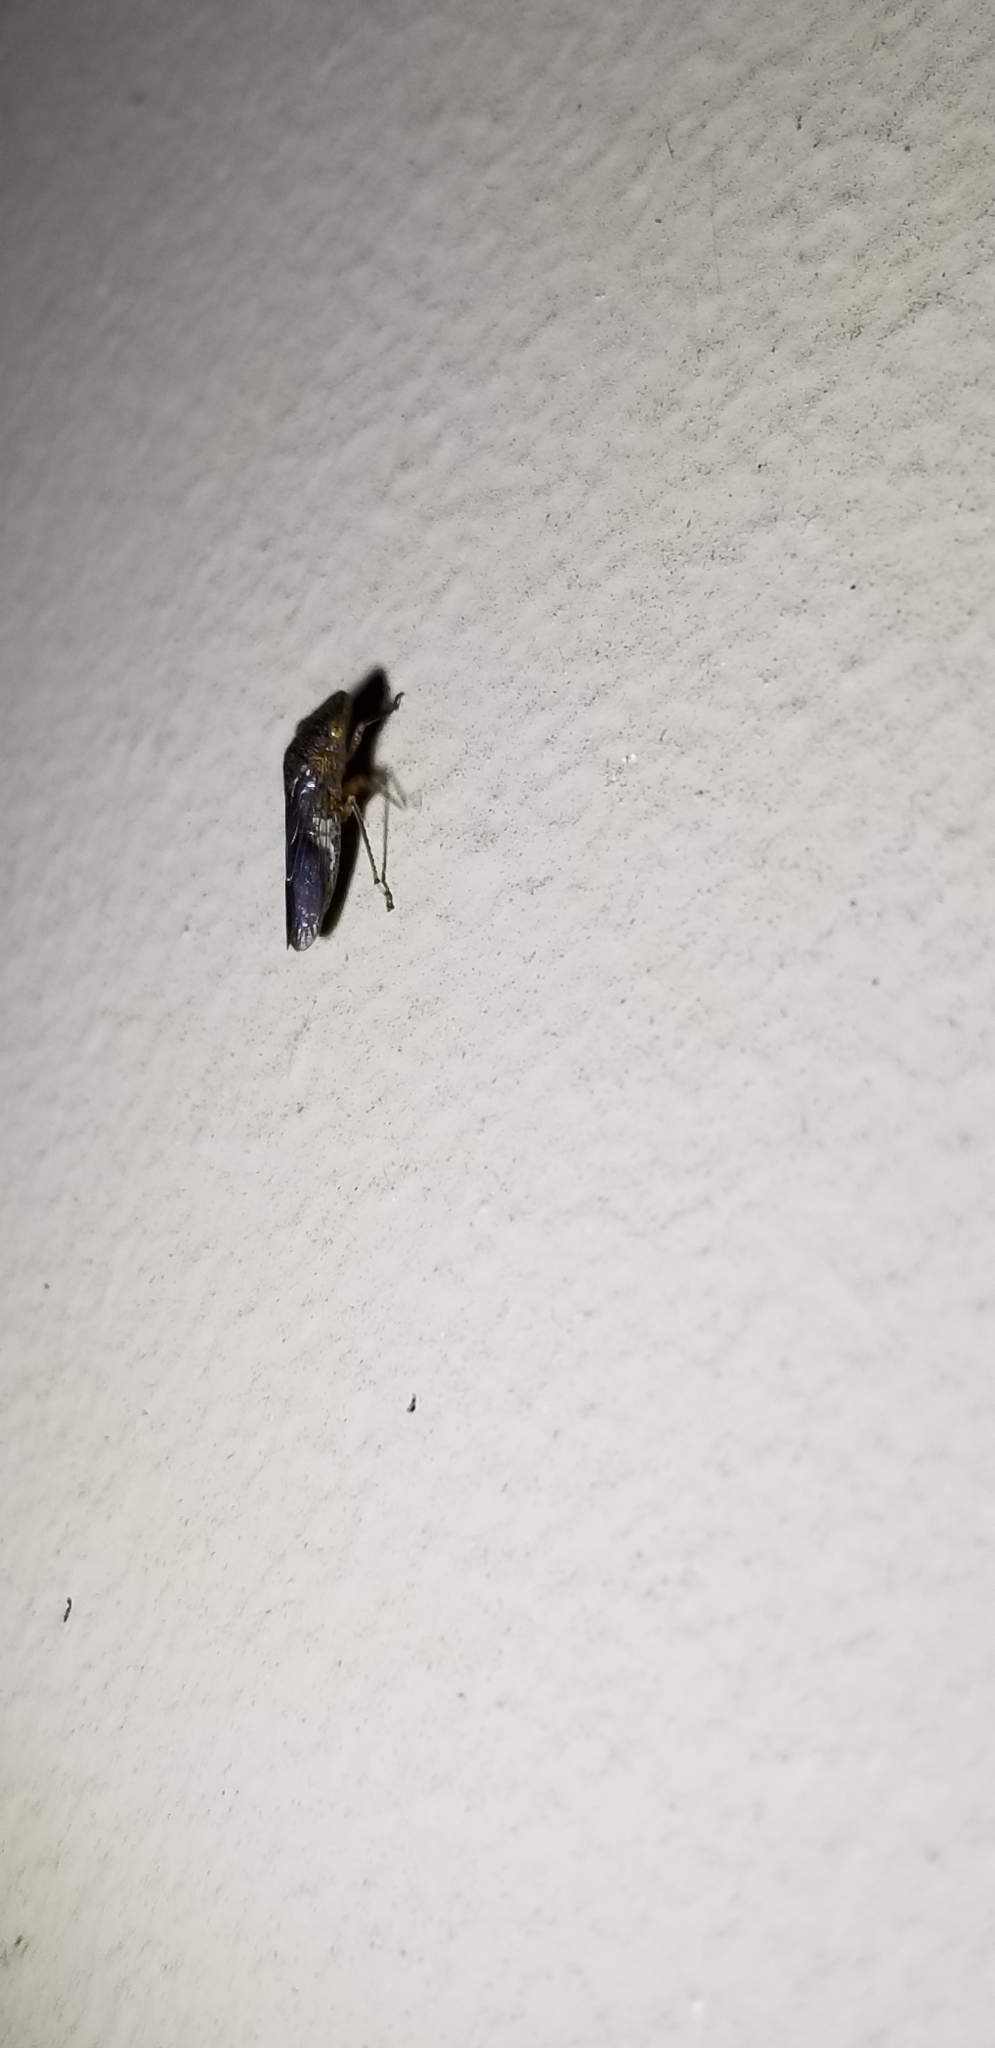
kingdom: Animalia
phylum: Arthropoda
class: Insecta
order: Hemiptera
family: Cicadellidae
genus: Homalodisca
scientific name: Homalodisca vitripennis
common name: Glassy-winged sharpshooter
